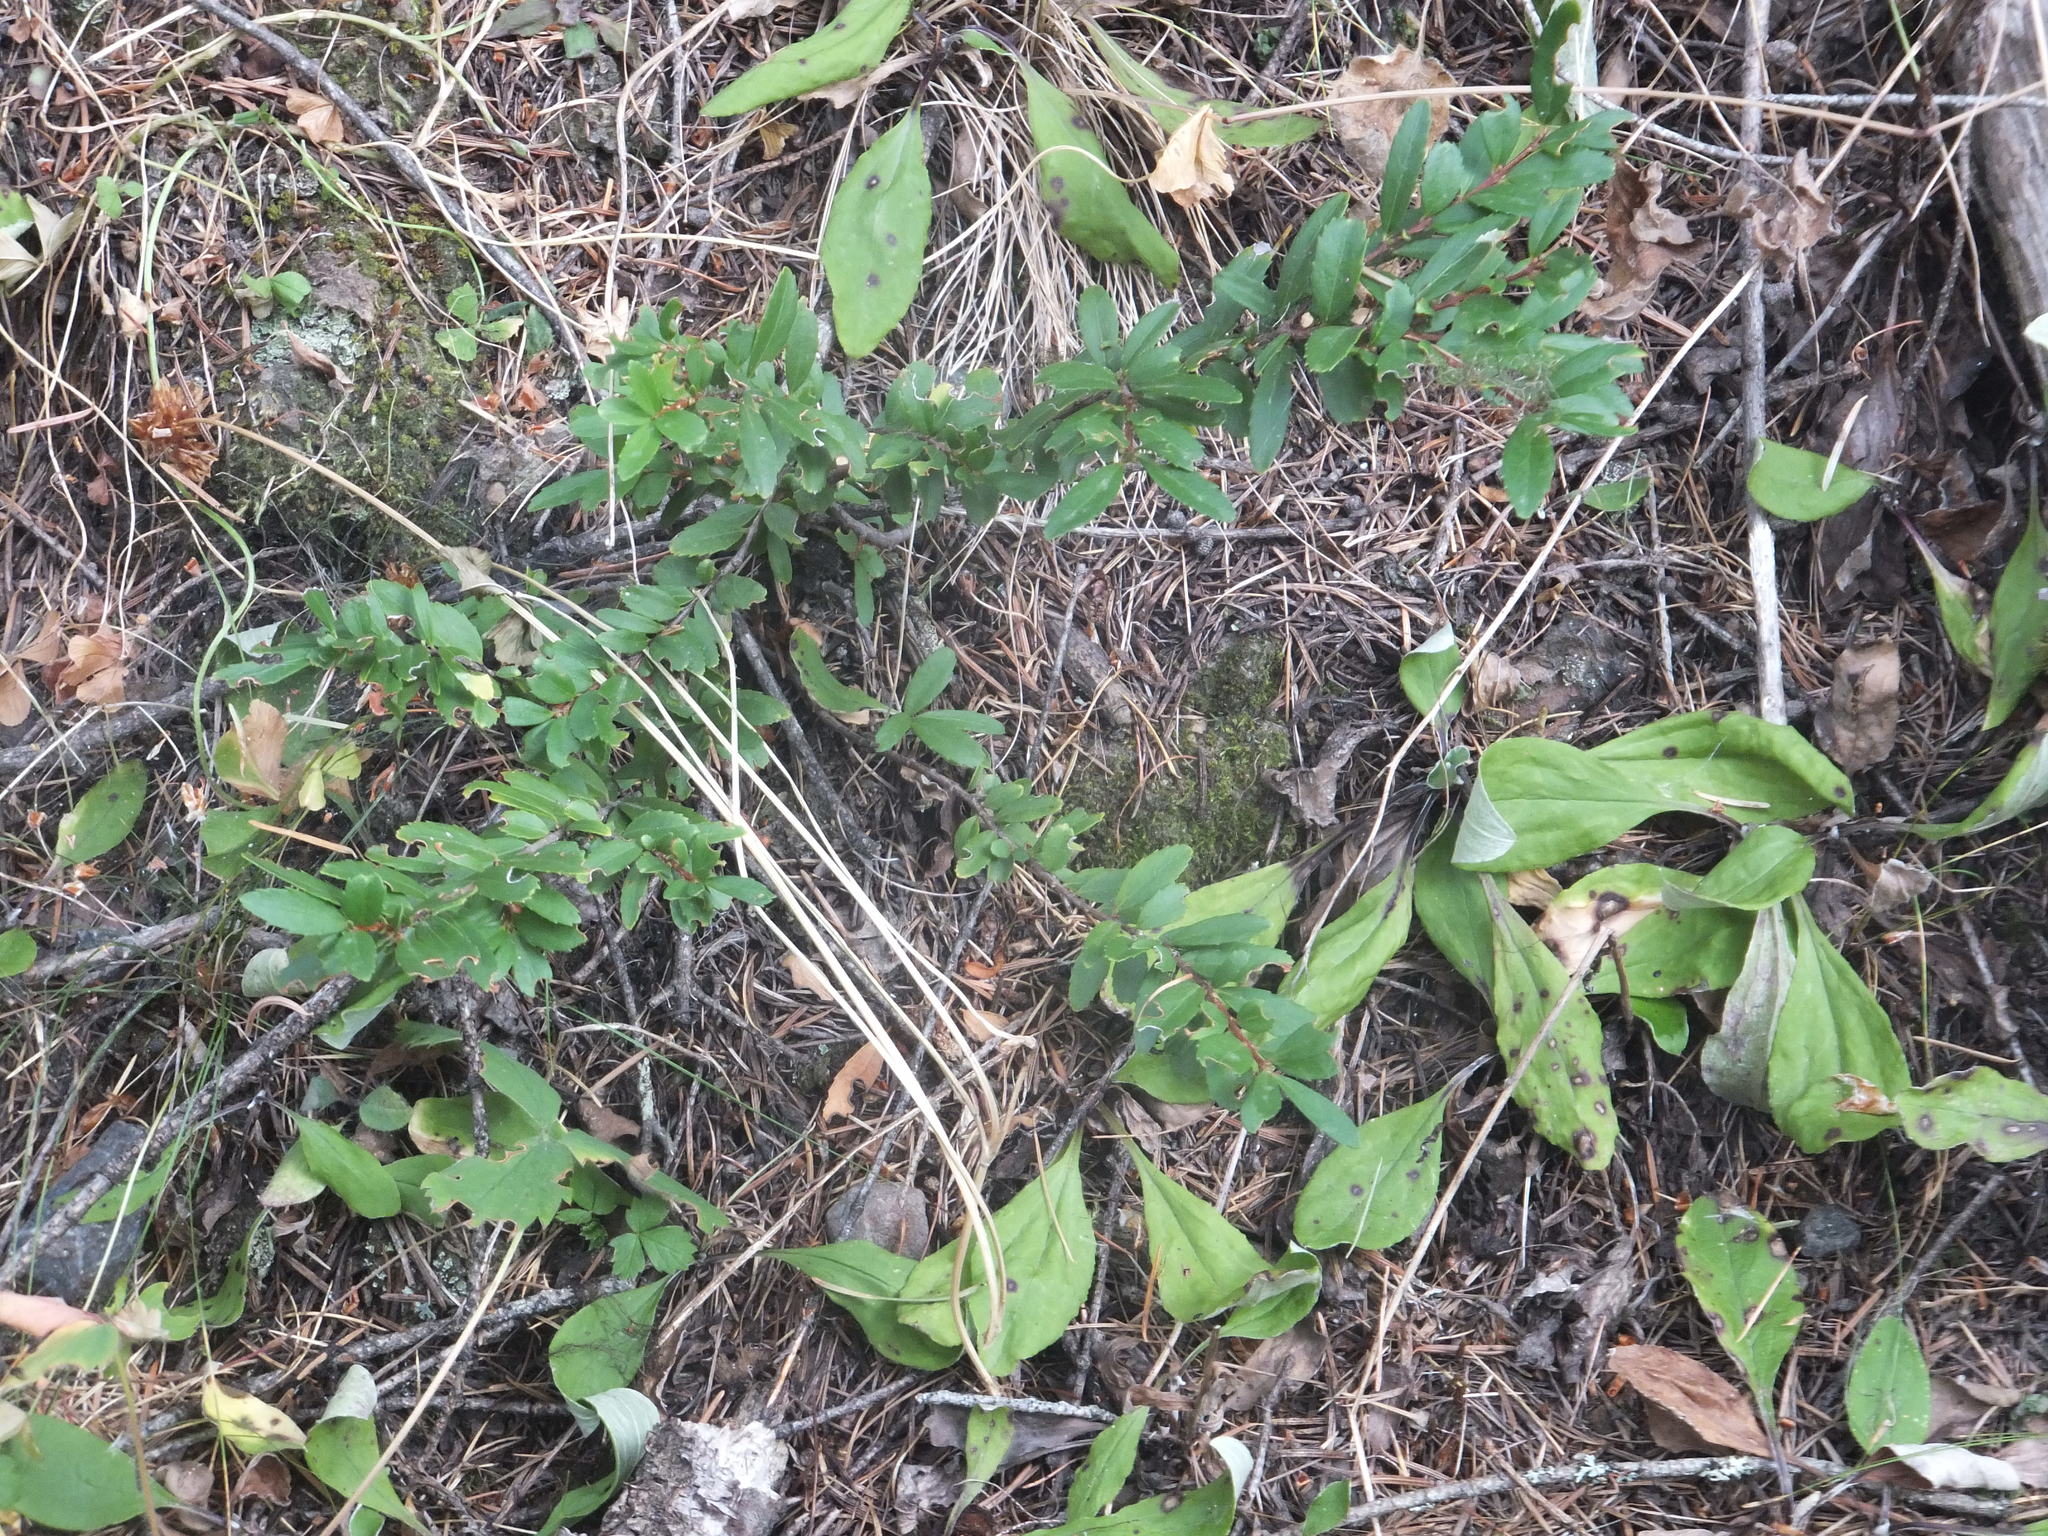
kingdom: Plantae
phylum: Tracheophyta
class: Magnoliopsida
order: Celastrales
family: Celastraceae
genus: Paxistima
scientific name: Paxistima myrsinites
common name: Mountain-lover
